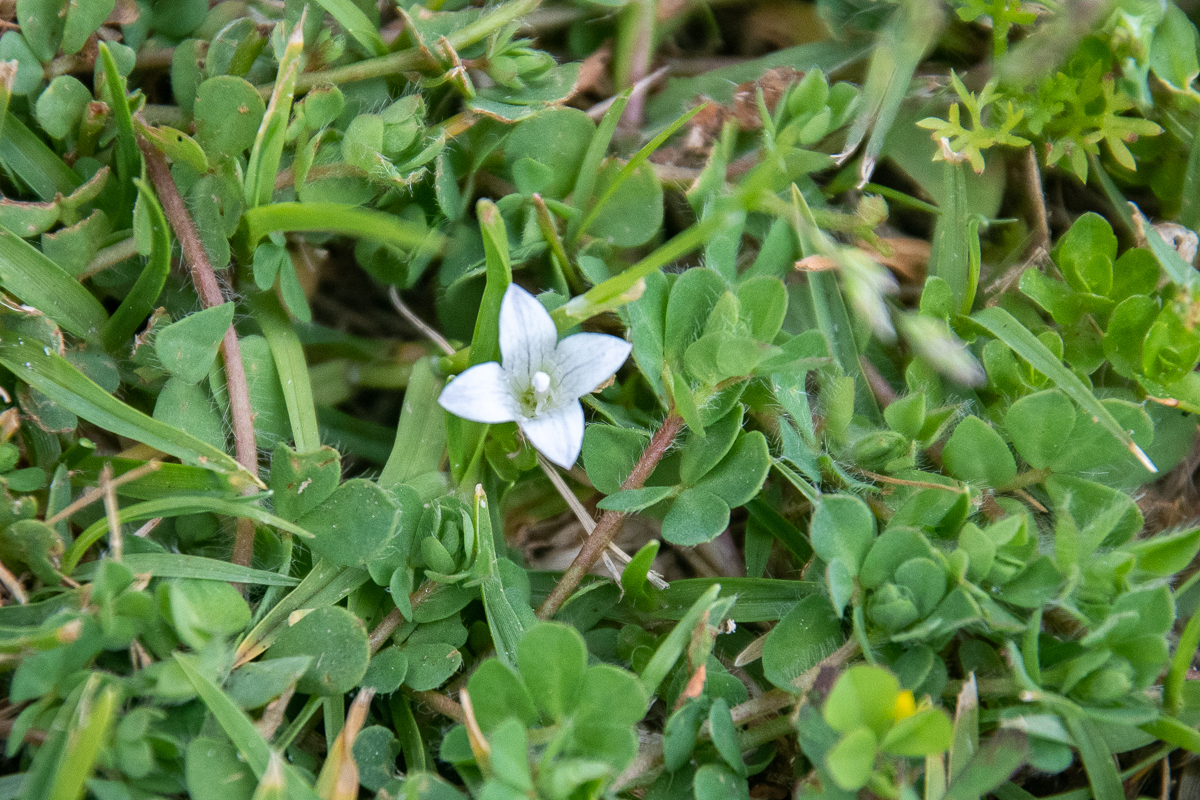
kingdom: Plantae
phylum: Tracheophyta
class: Magnoliopsida
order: Asterales
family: Campanulaceae
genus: Wahlenbergia
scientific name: Wahlenbergia procumbens
